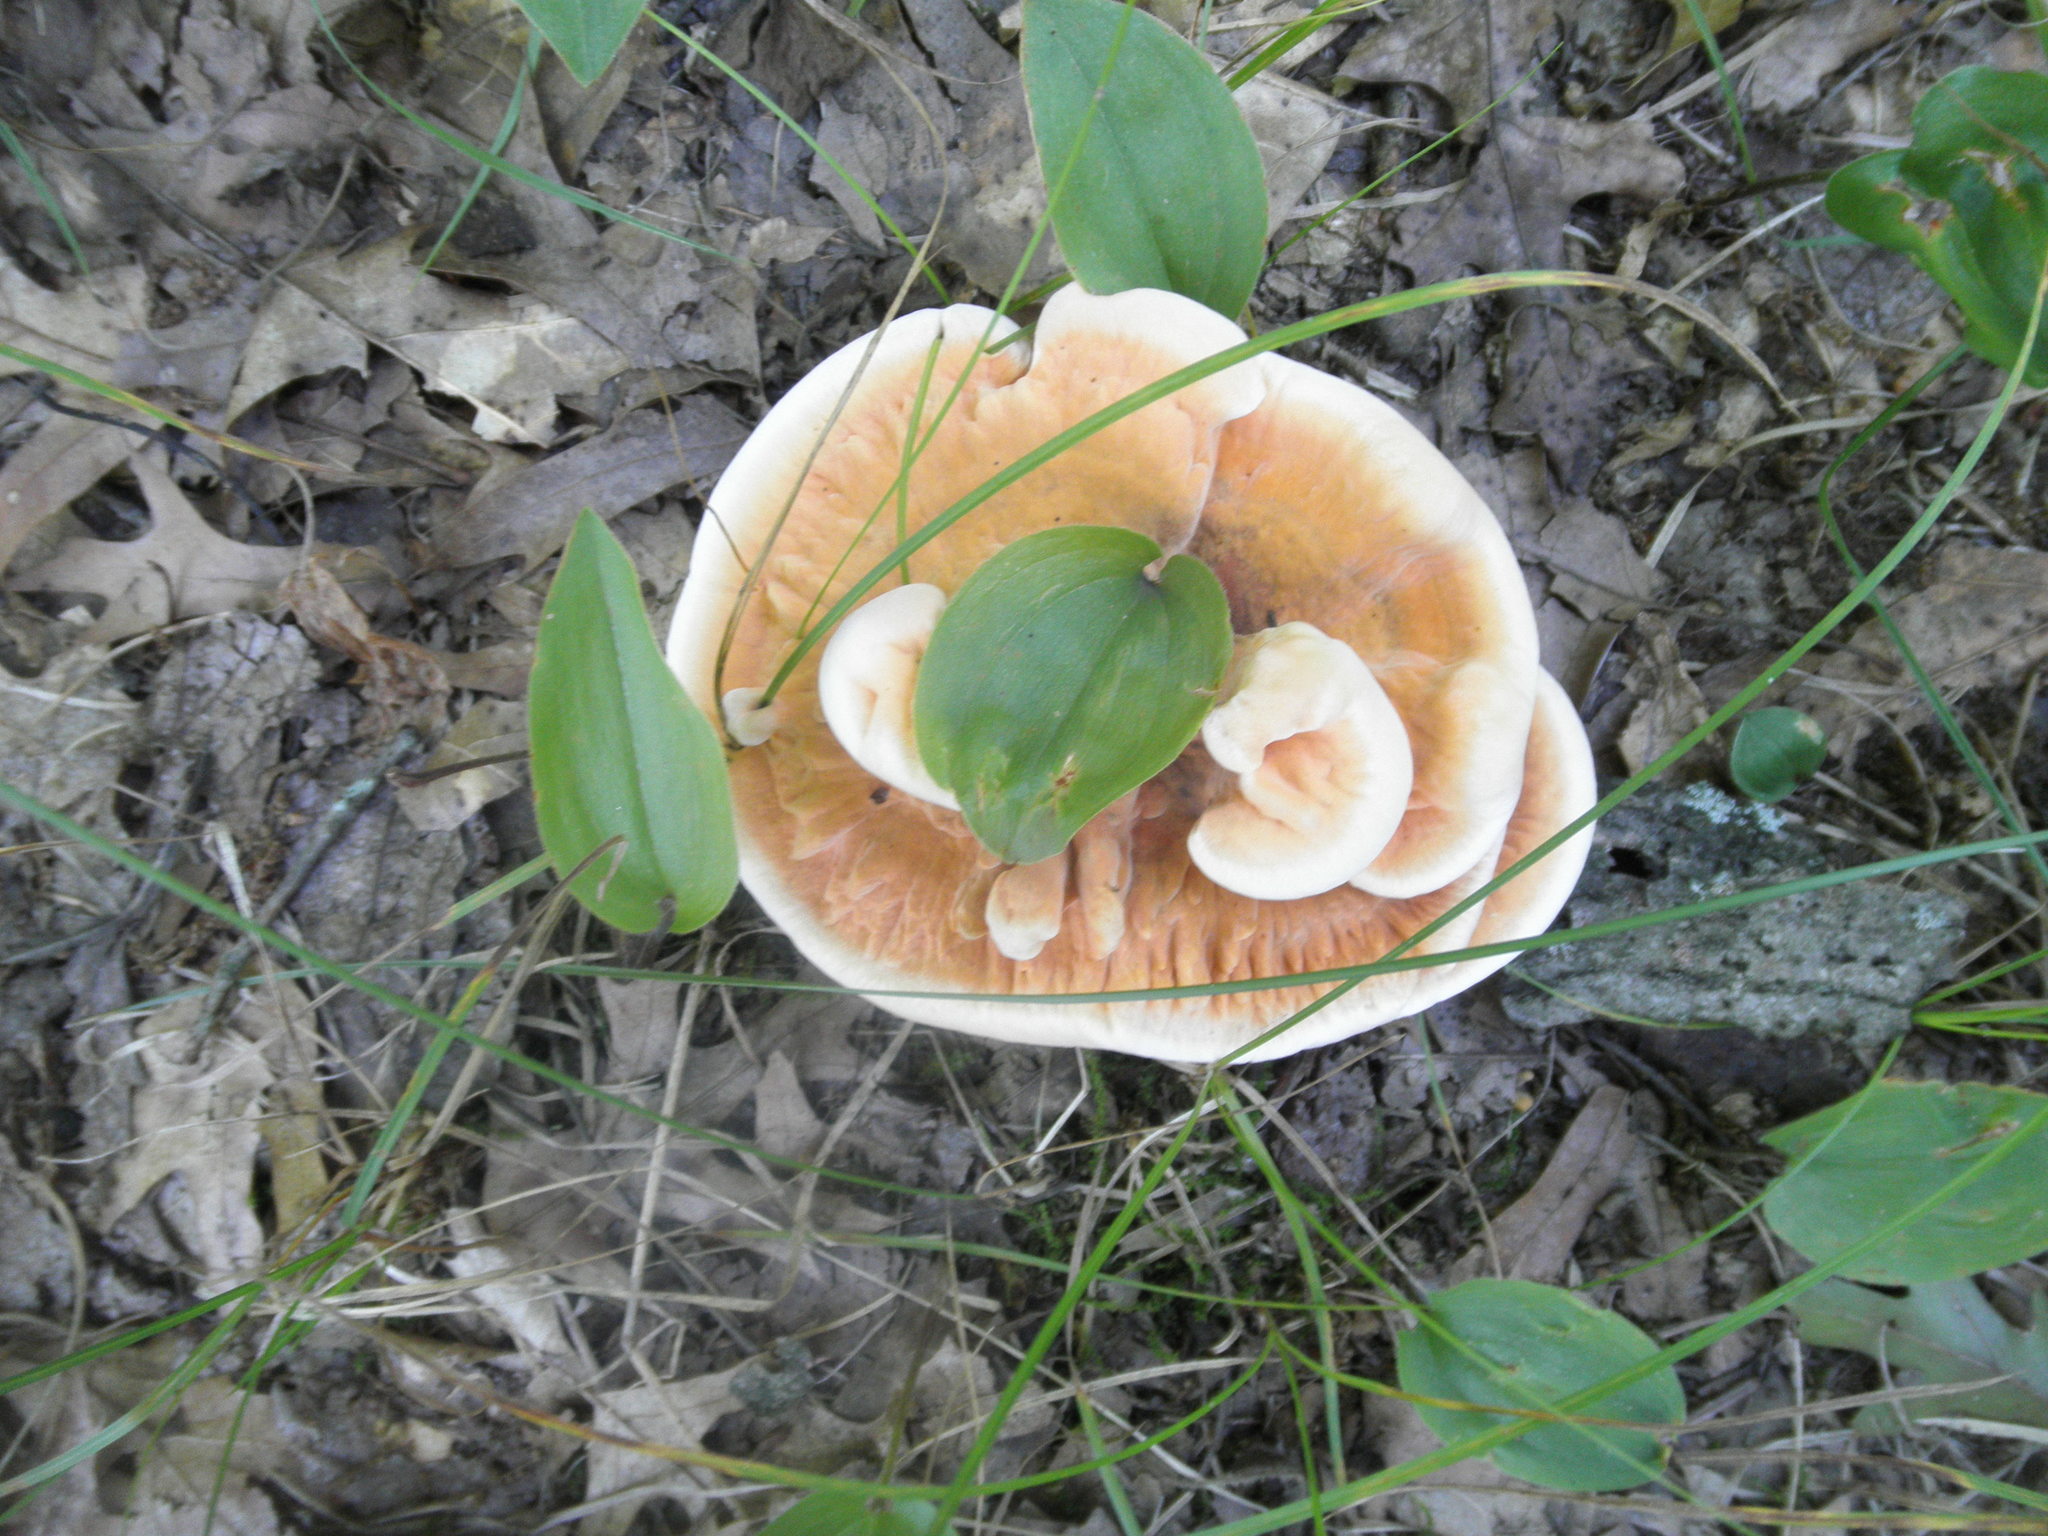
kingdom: Fungi
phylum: Basidiomycota
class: Agaricomycetes
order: Thelephorales
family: Bankeraceae
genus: Hydnellum
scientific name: Hydnellum aurantiacum
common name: Orange tooth
